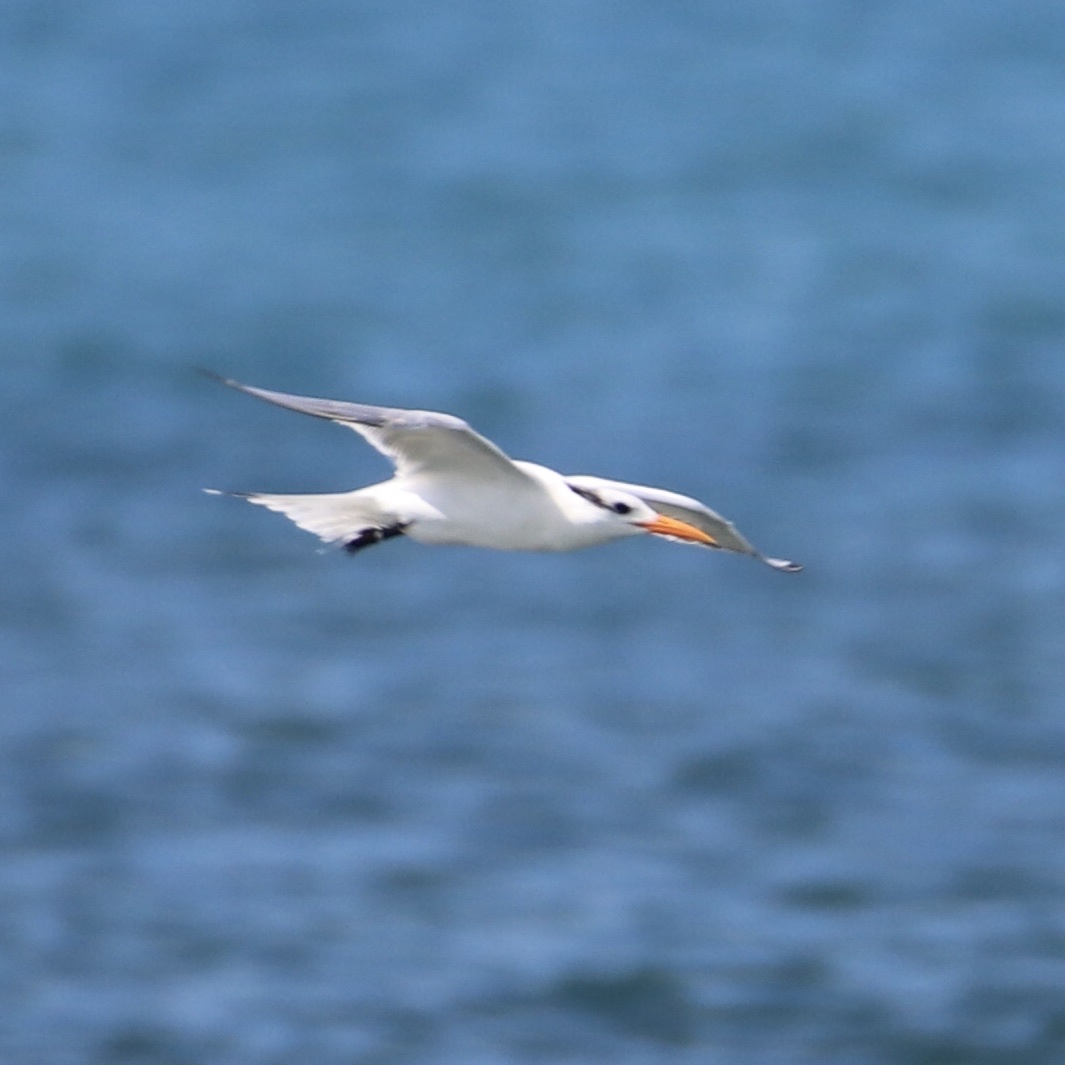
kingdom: Animalia
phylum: Chordata
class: Aves
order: Charadriiformes
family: Laridae
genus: Thalasseus
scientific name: Thalasseus maximus
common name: Royal tern
